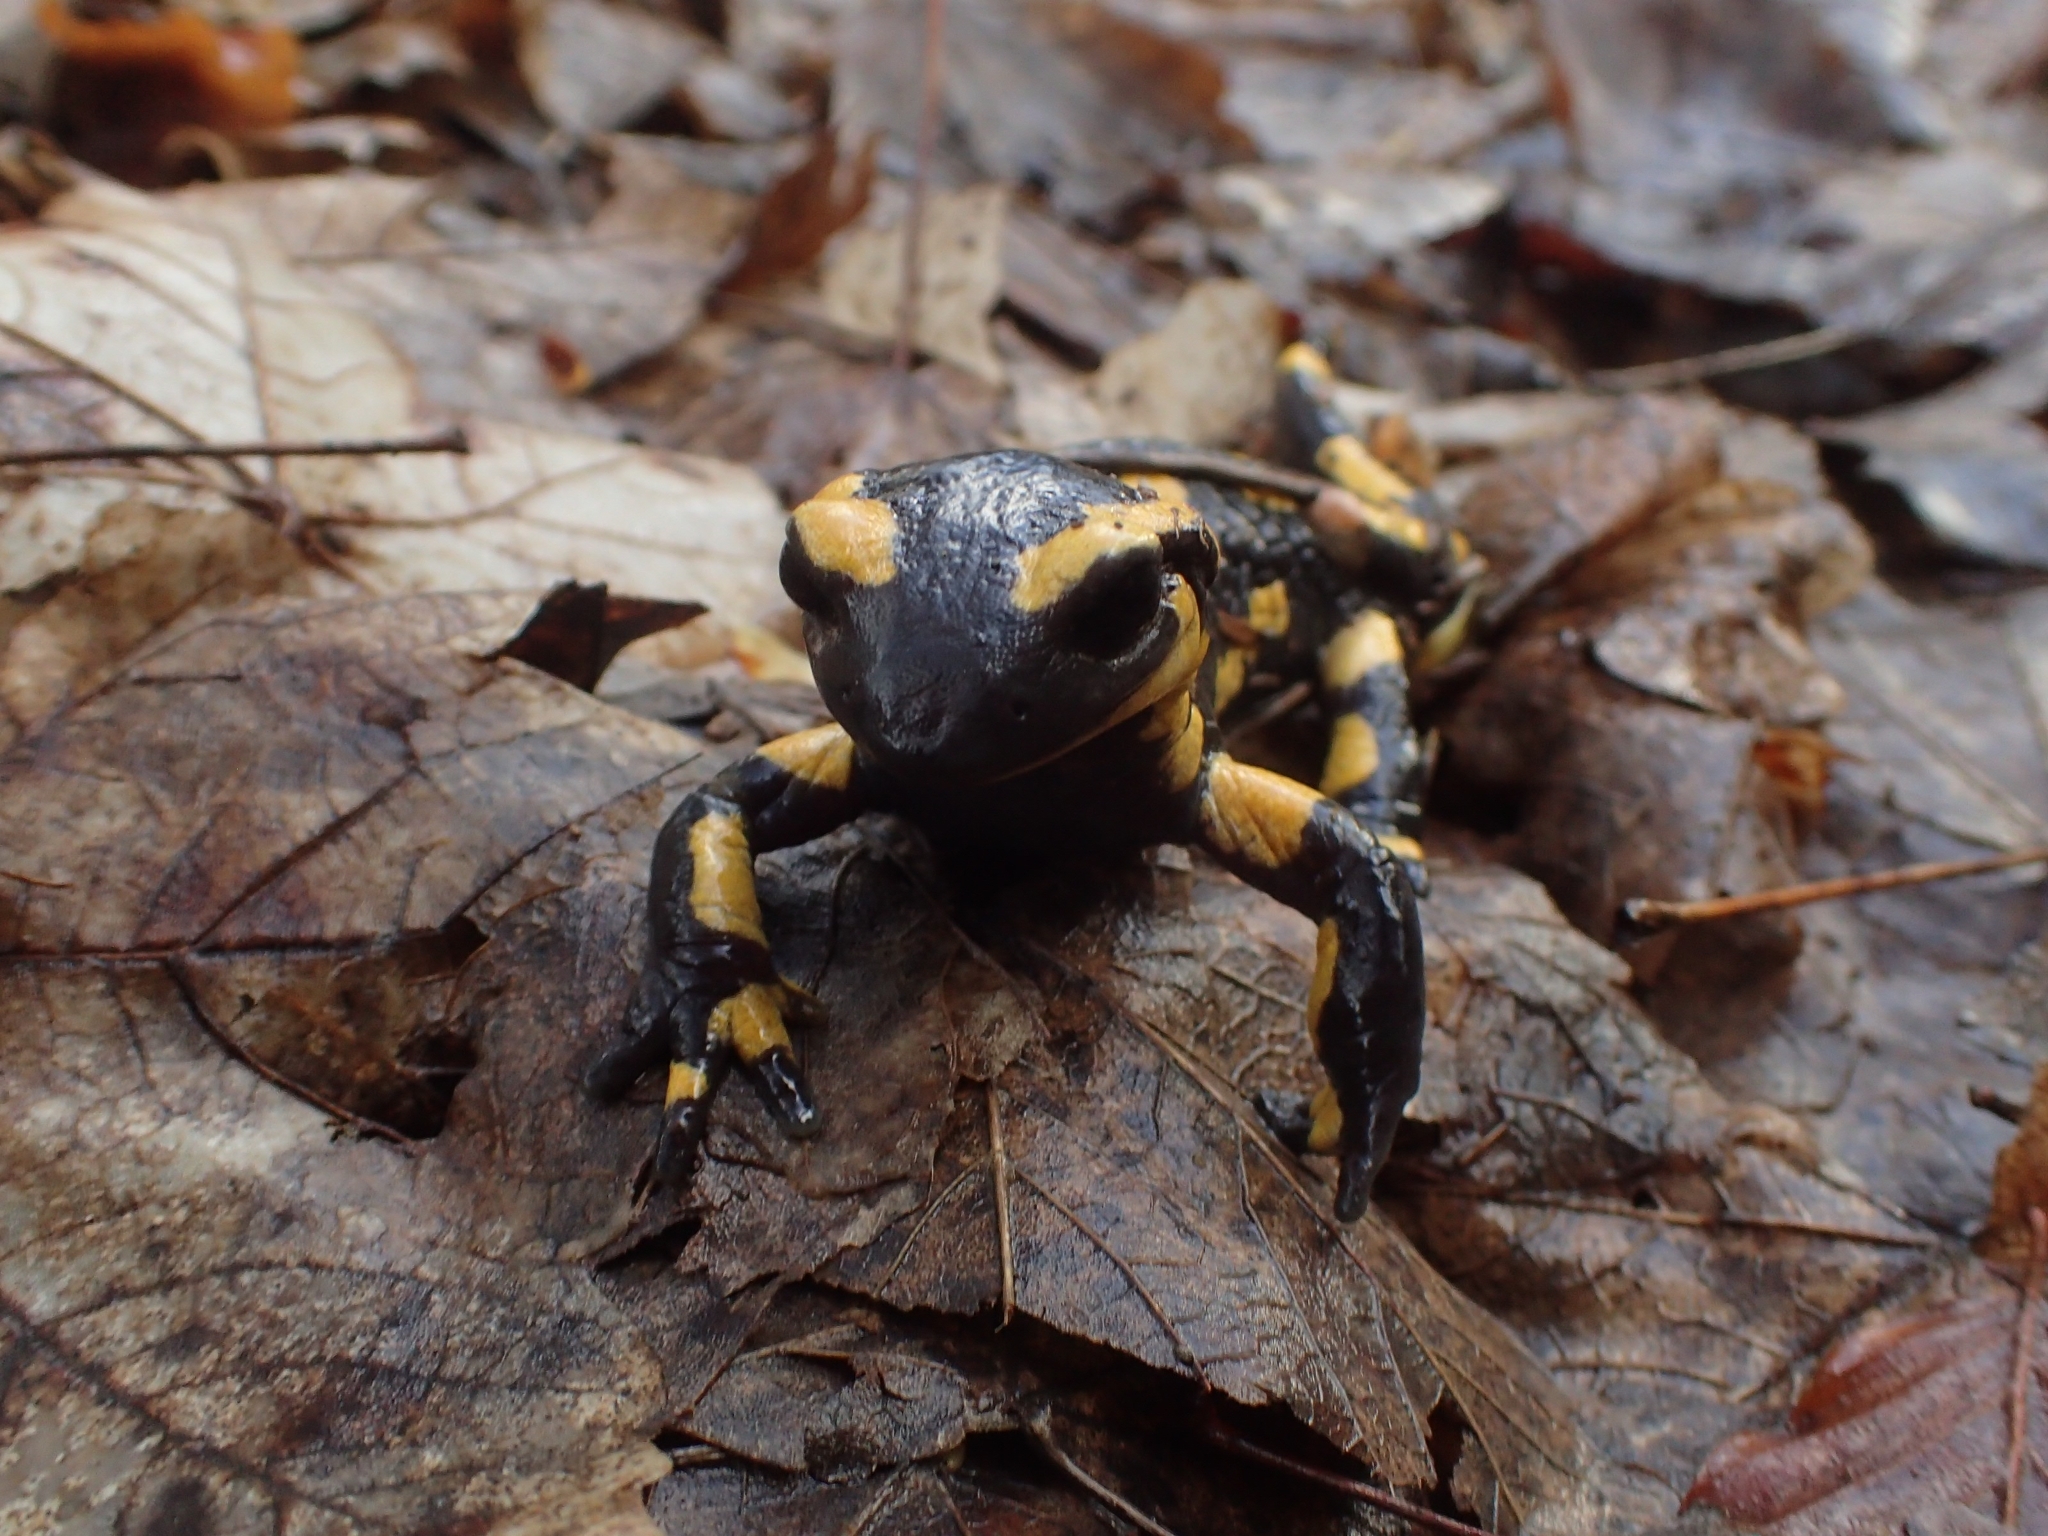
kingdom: Animalia
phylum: Chordata
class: Amphibia
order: Caudata
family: Salamandridae
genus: Salamandra
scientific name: Salamandra salamandra
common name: Fire salamander
